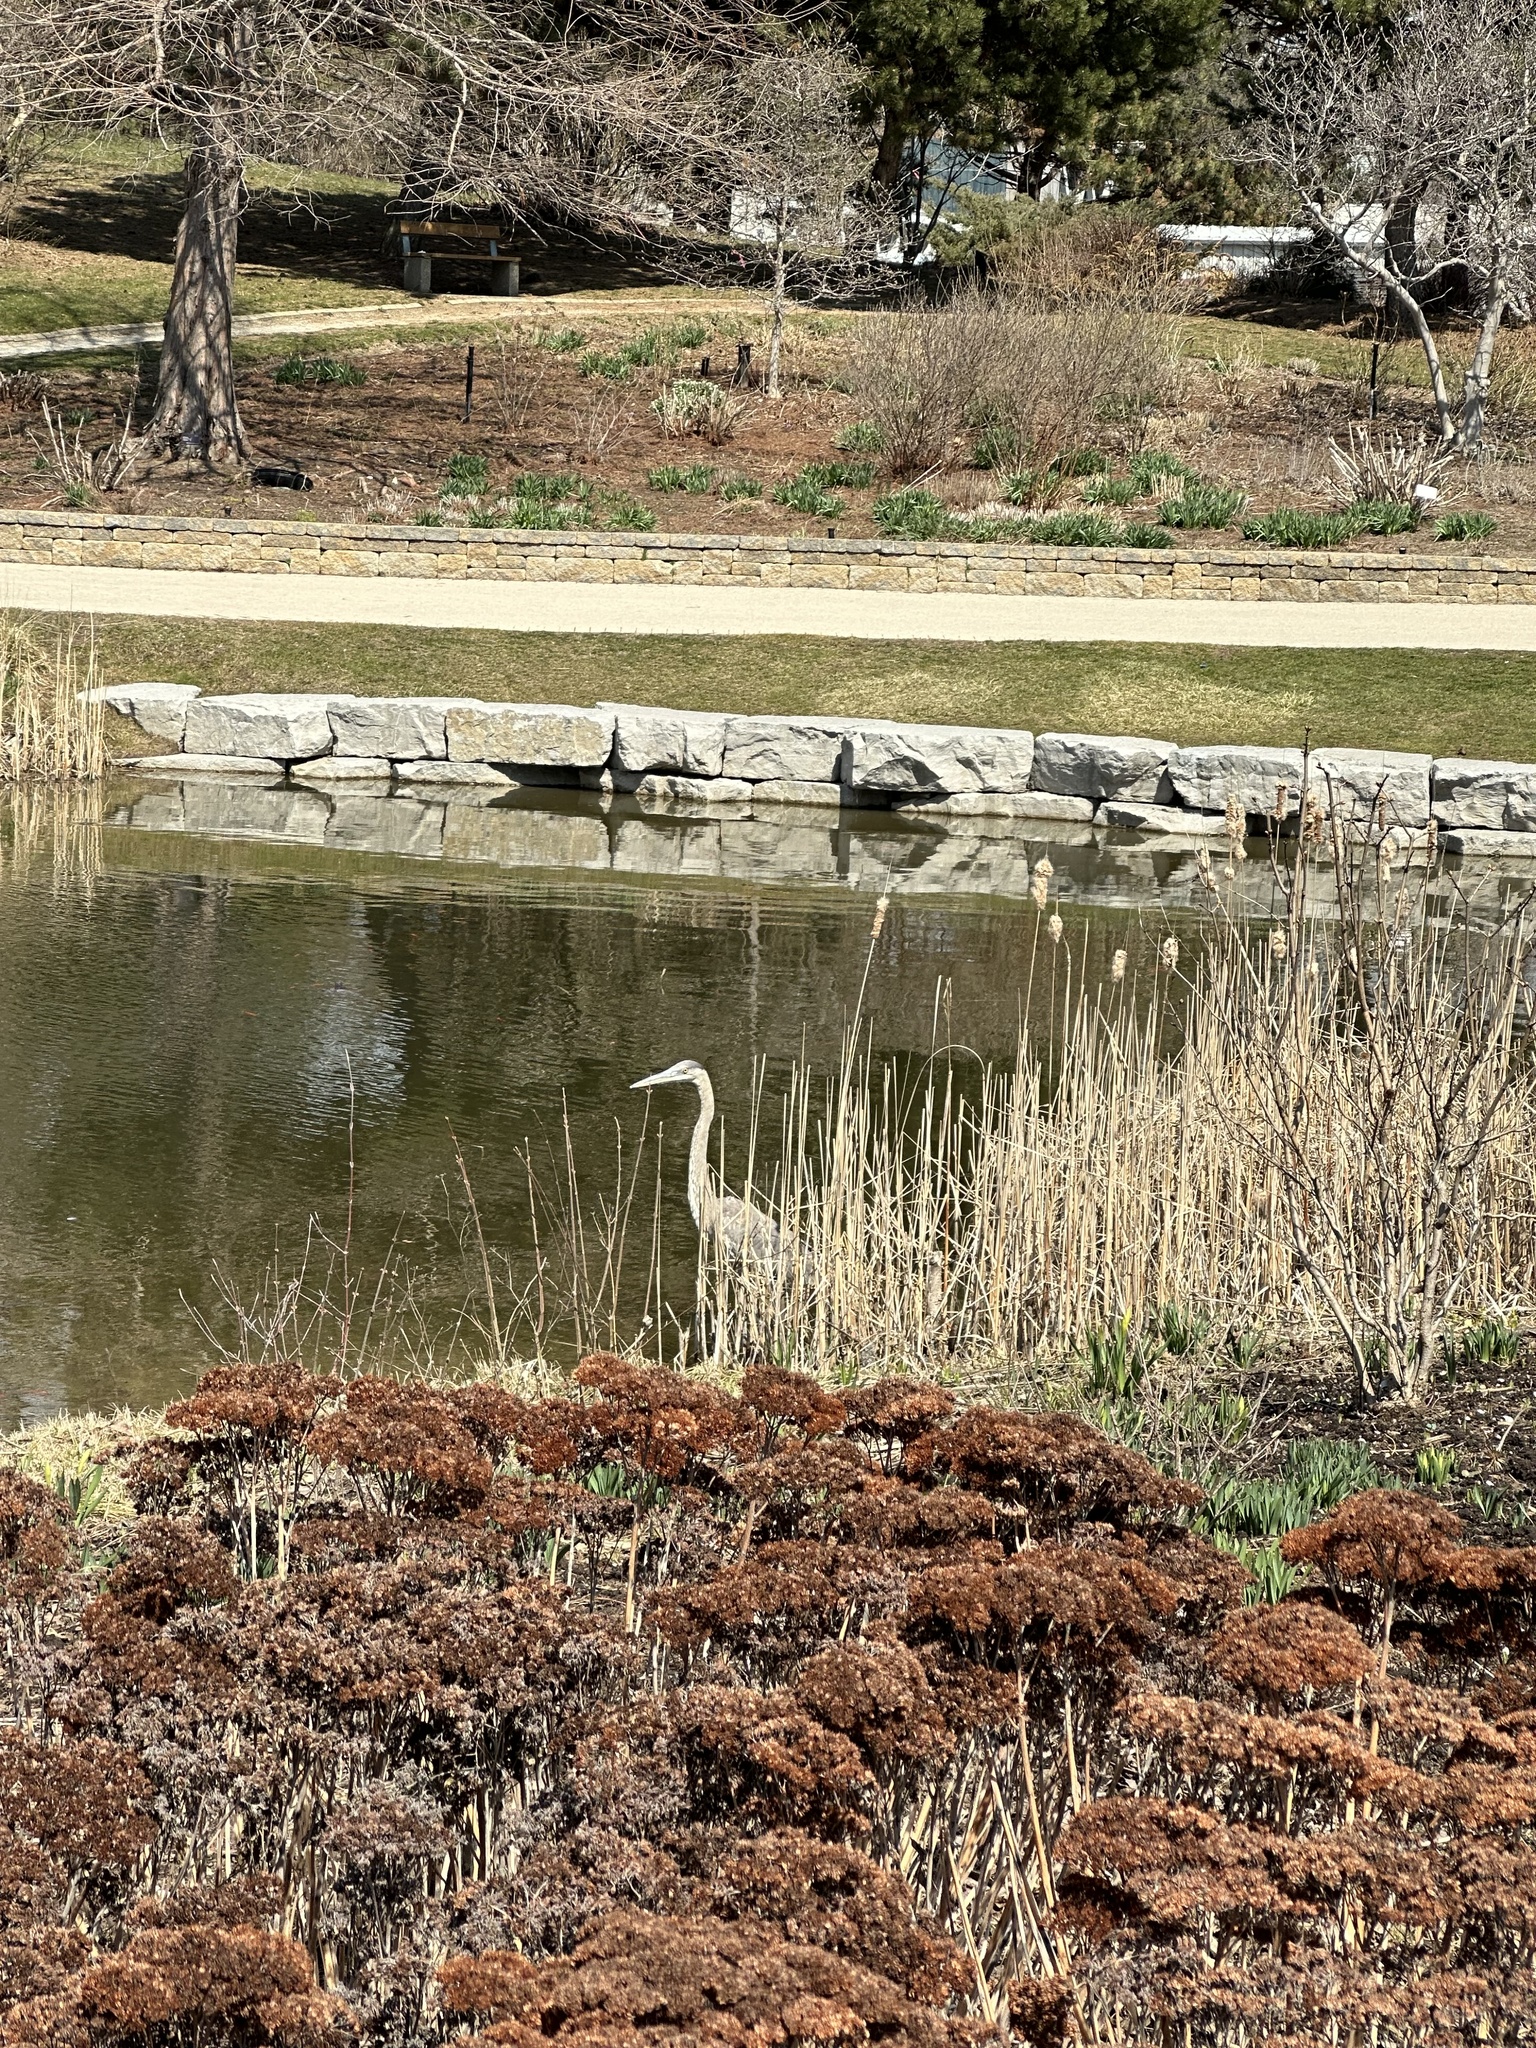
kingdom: Animalia
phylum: Chordata
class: Aves
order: Pelecaniformes
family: Ardeidae
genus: Ardea
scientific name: Ardea herodias
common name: Great blue heron
